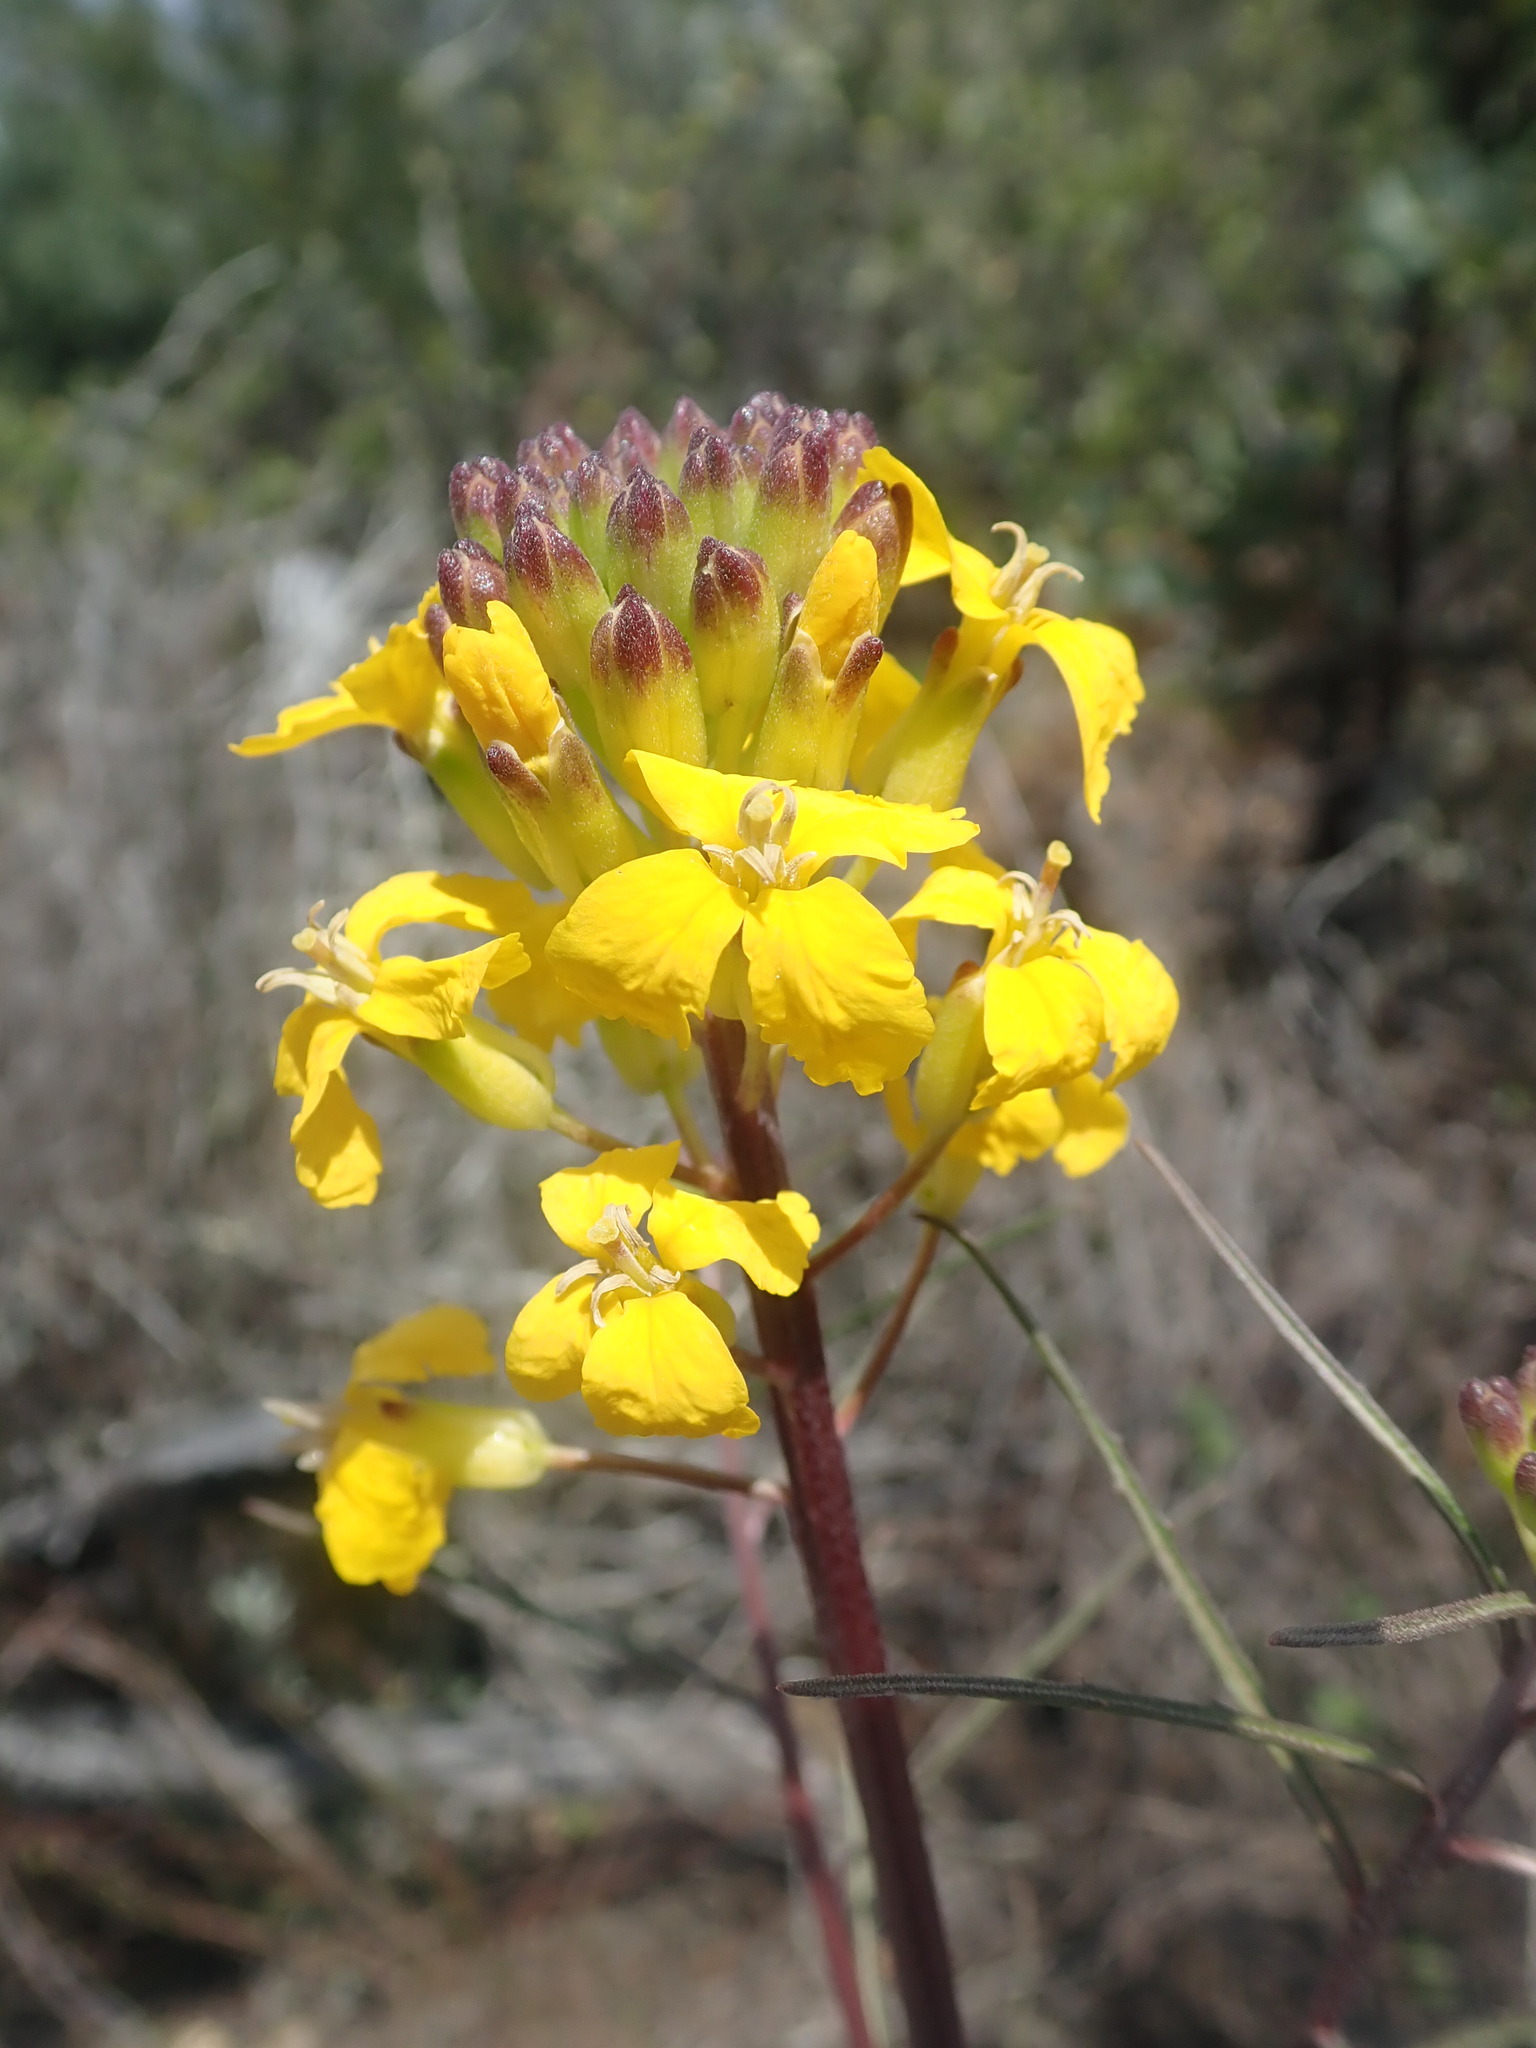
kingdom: Plantae
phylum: Tracheophyta
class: Magnoliopsida
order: Brassicales
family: Brassicaceae
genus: Erysimum
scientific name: Erysimum teretifolium
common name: Ben lomond wallflower
